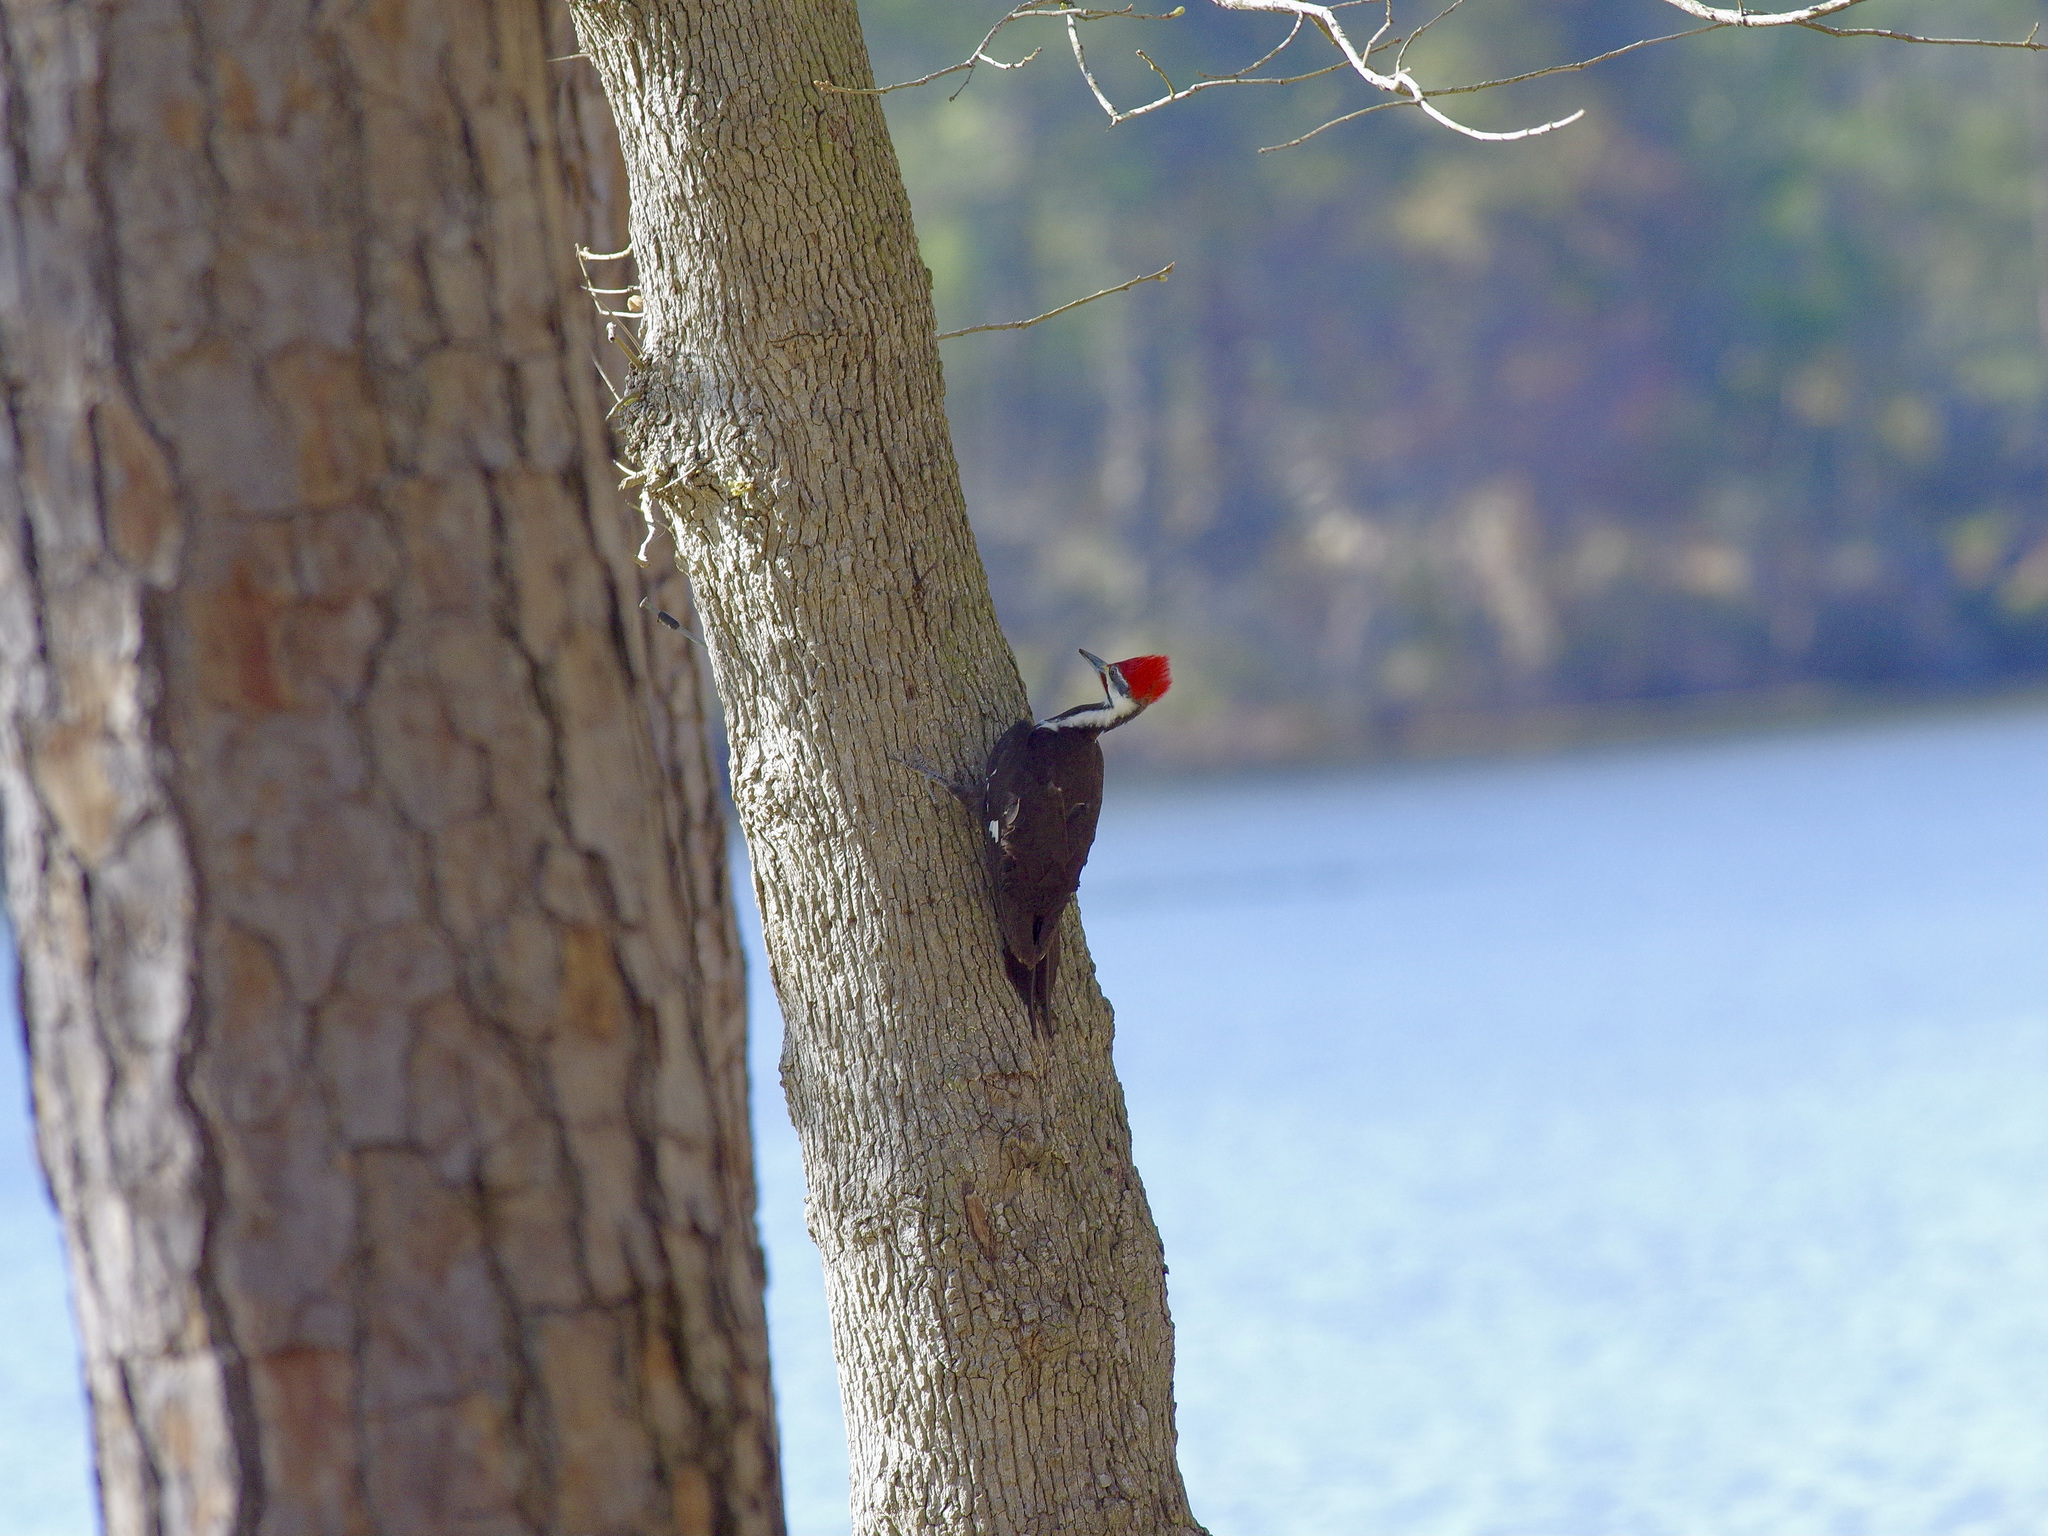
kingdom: Animalia
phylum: Chordata
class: Aves
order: Piciformes
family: Picidae
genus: Dryocopus
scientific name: Dryocopus pileatus
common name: Pileated woodpecker
